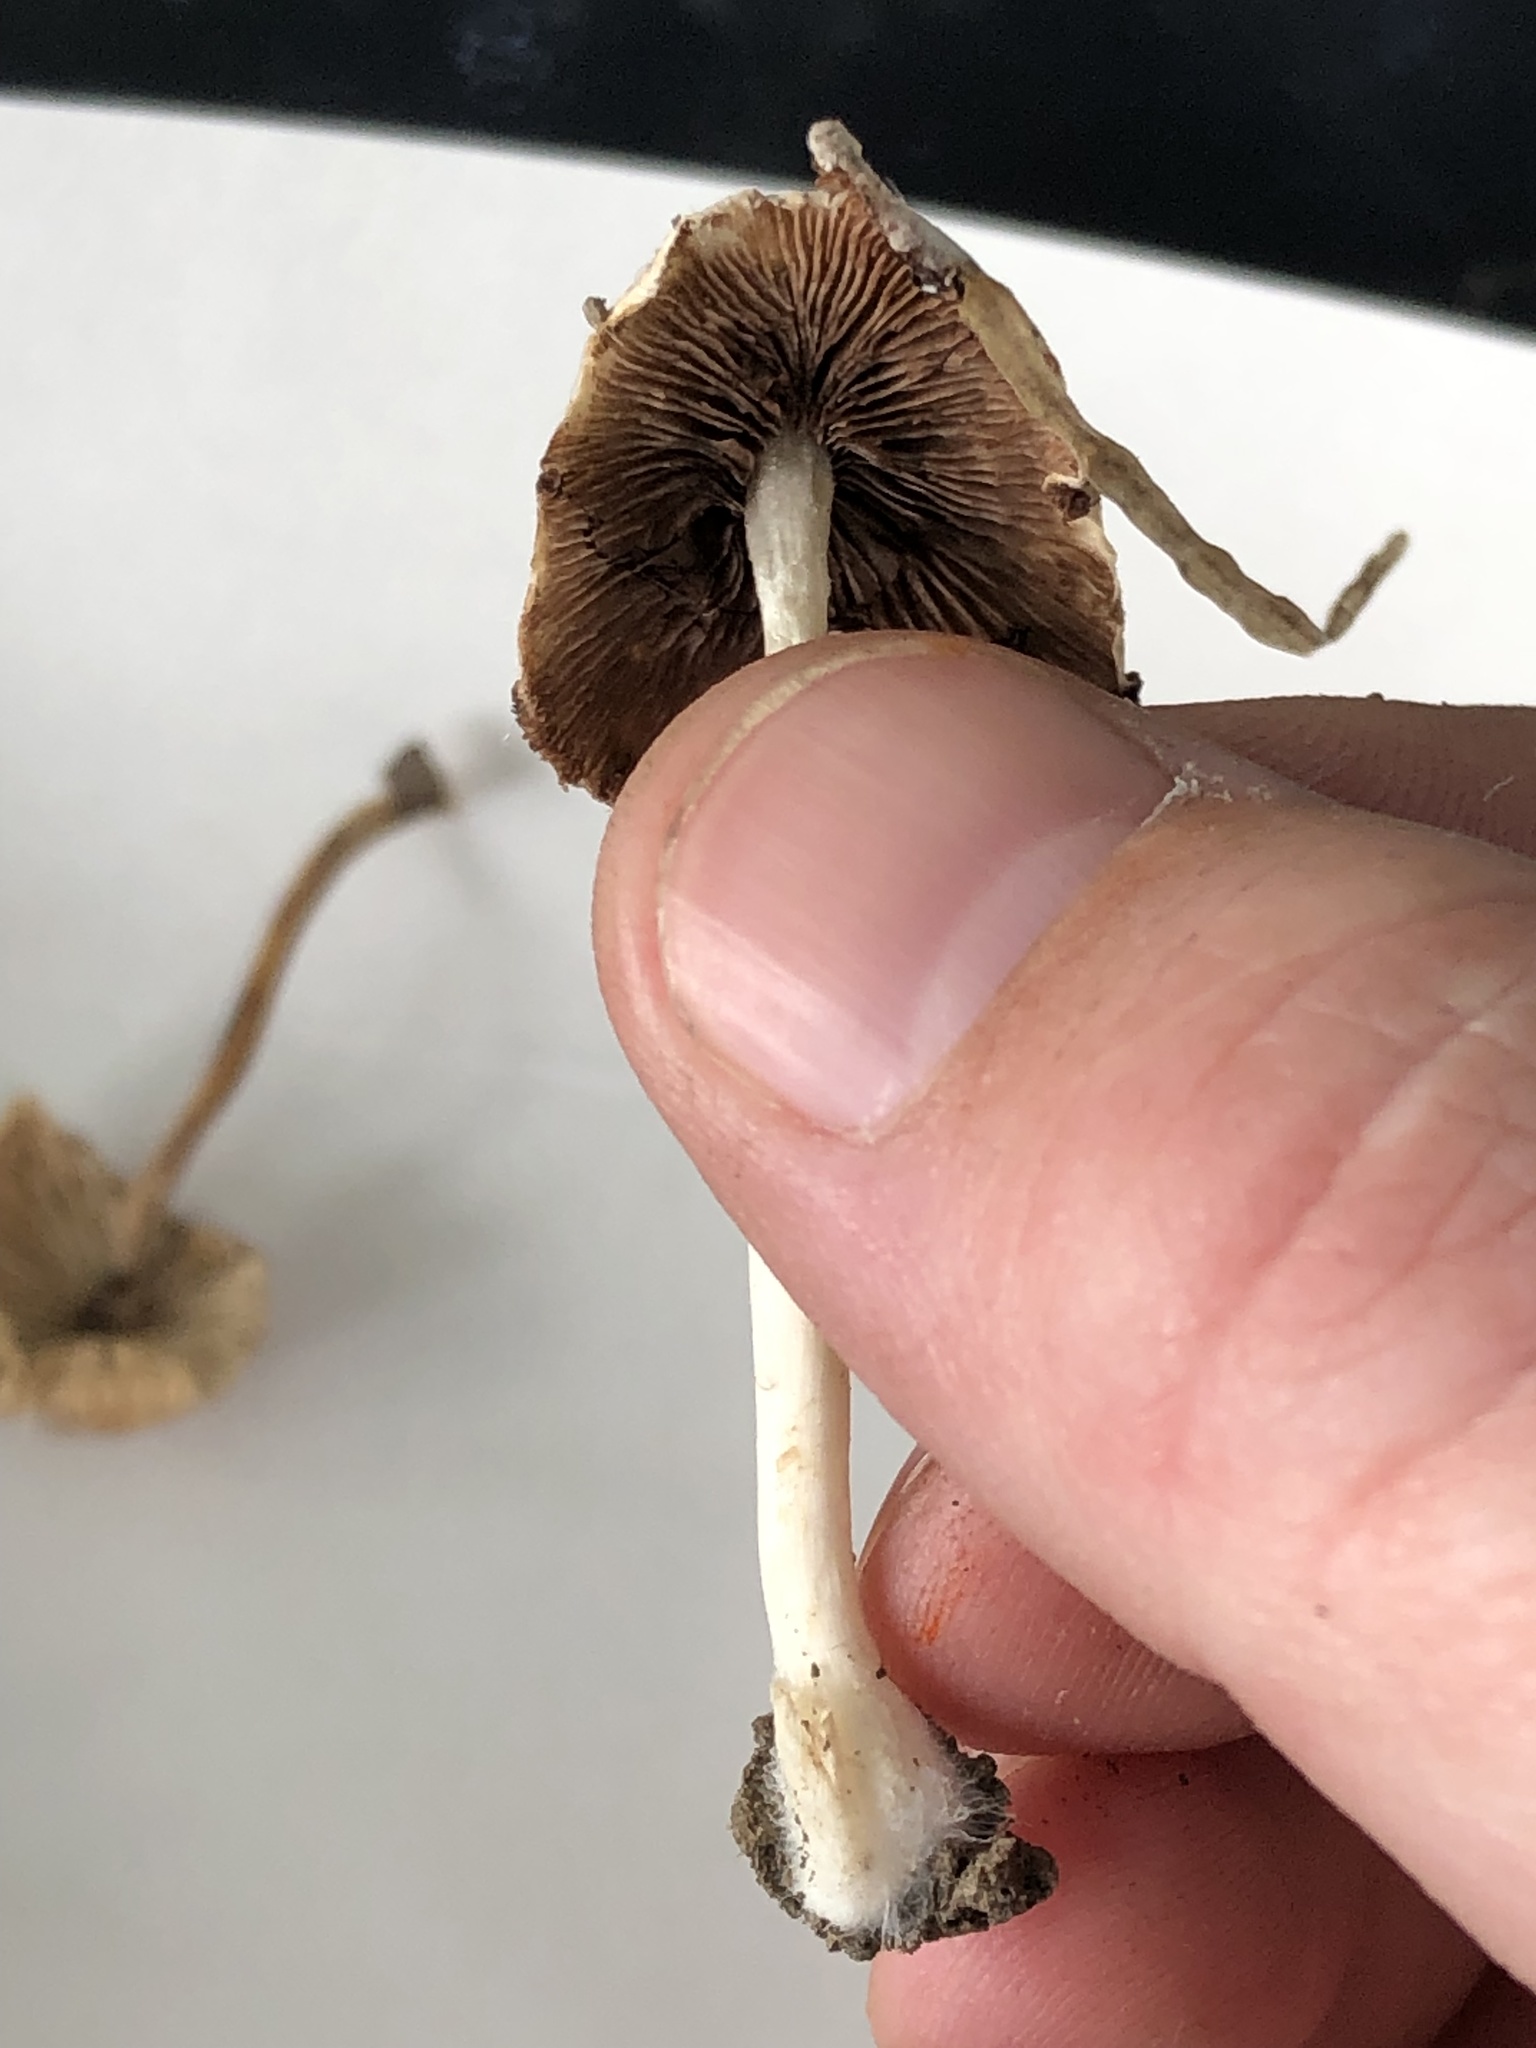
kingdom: Fungi
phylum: Basidiomycota
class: Agaricomycetes
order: Agaricales
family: Psathyrellaceae
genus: Candolleomyces
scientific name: Candolleomyces candolleanus
